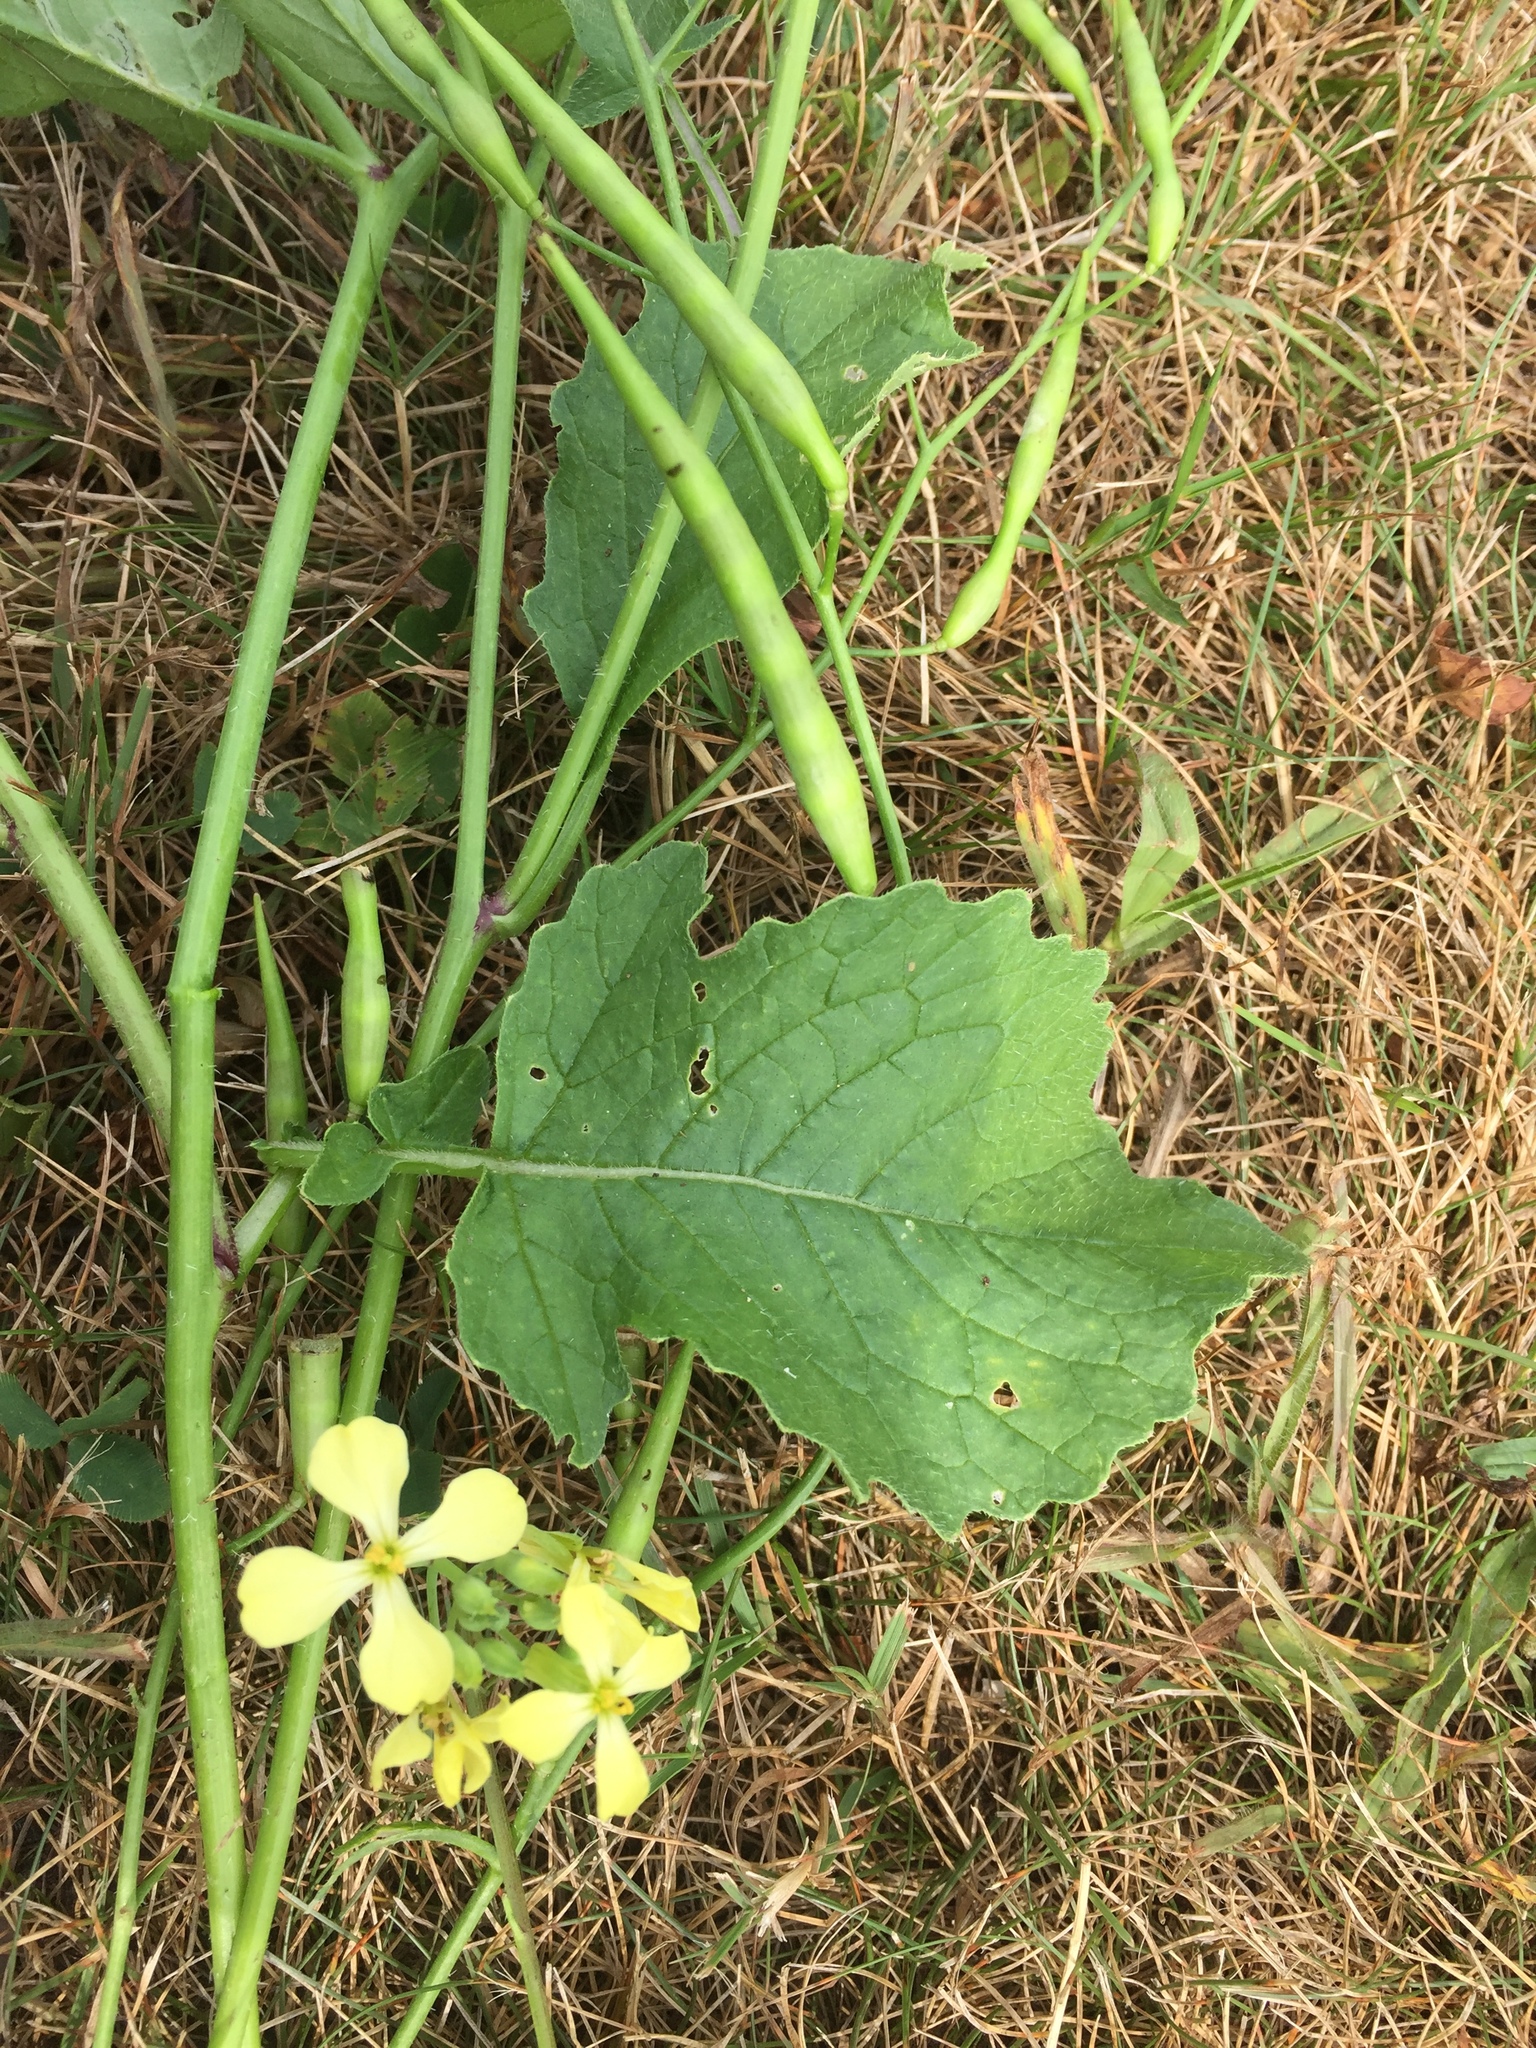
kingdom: Plantae
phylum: Tracheophyta
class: Magnoliopsida
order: Brassicales
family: Brassicaceae
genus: Raphanus
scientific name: Raphanus raphanistrum
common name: Wild radish
